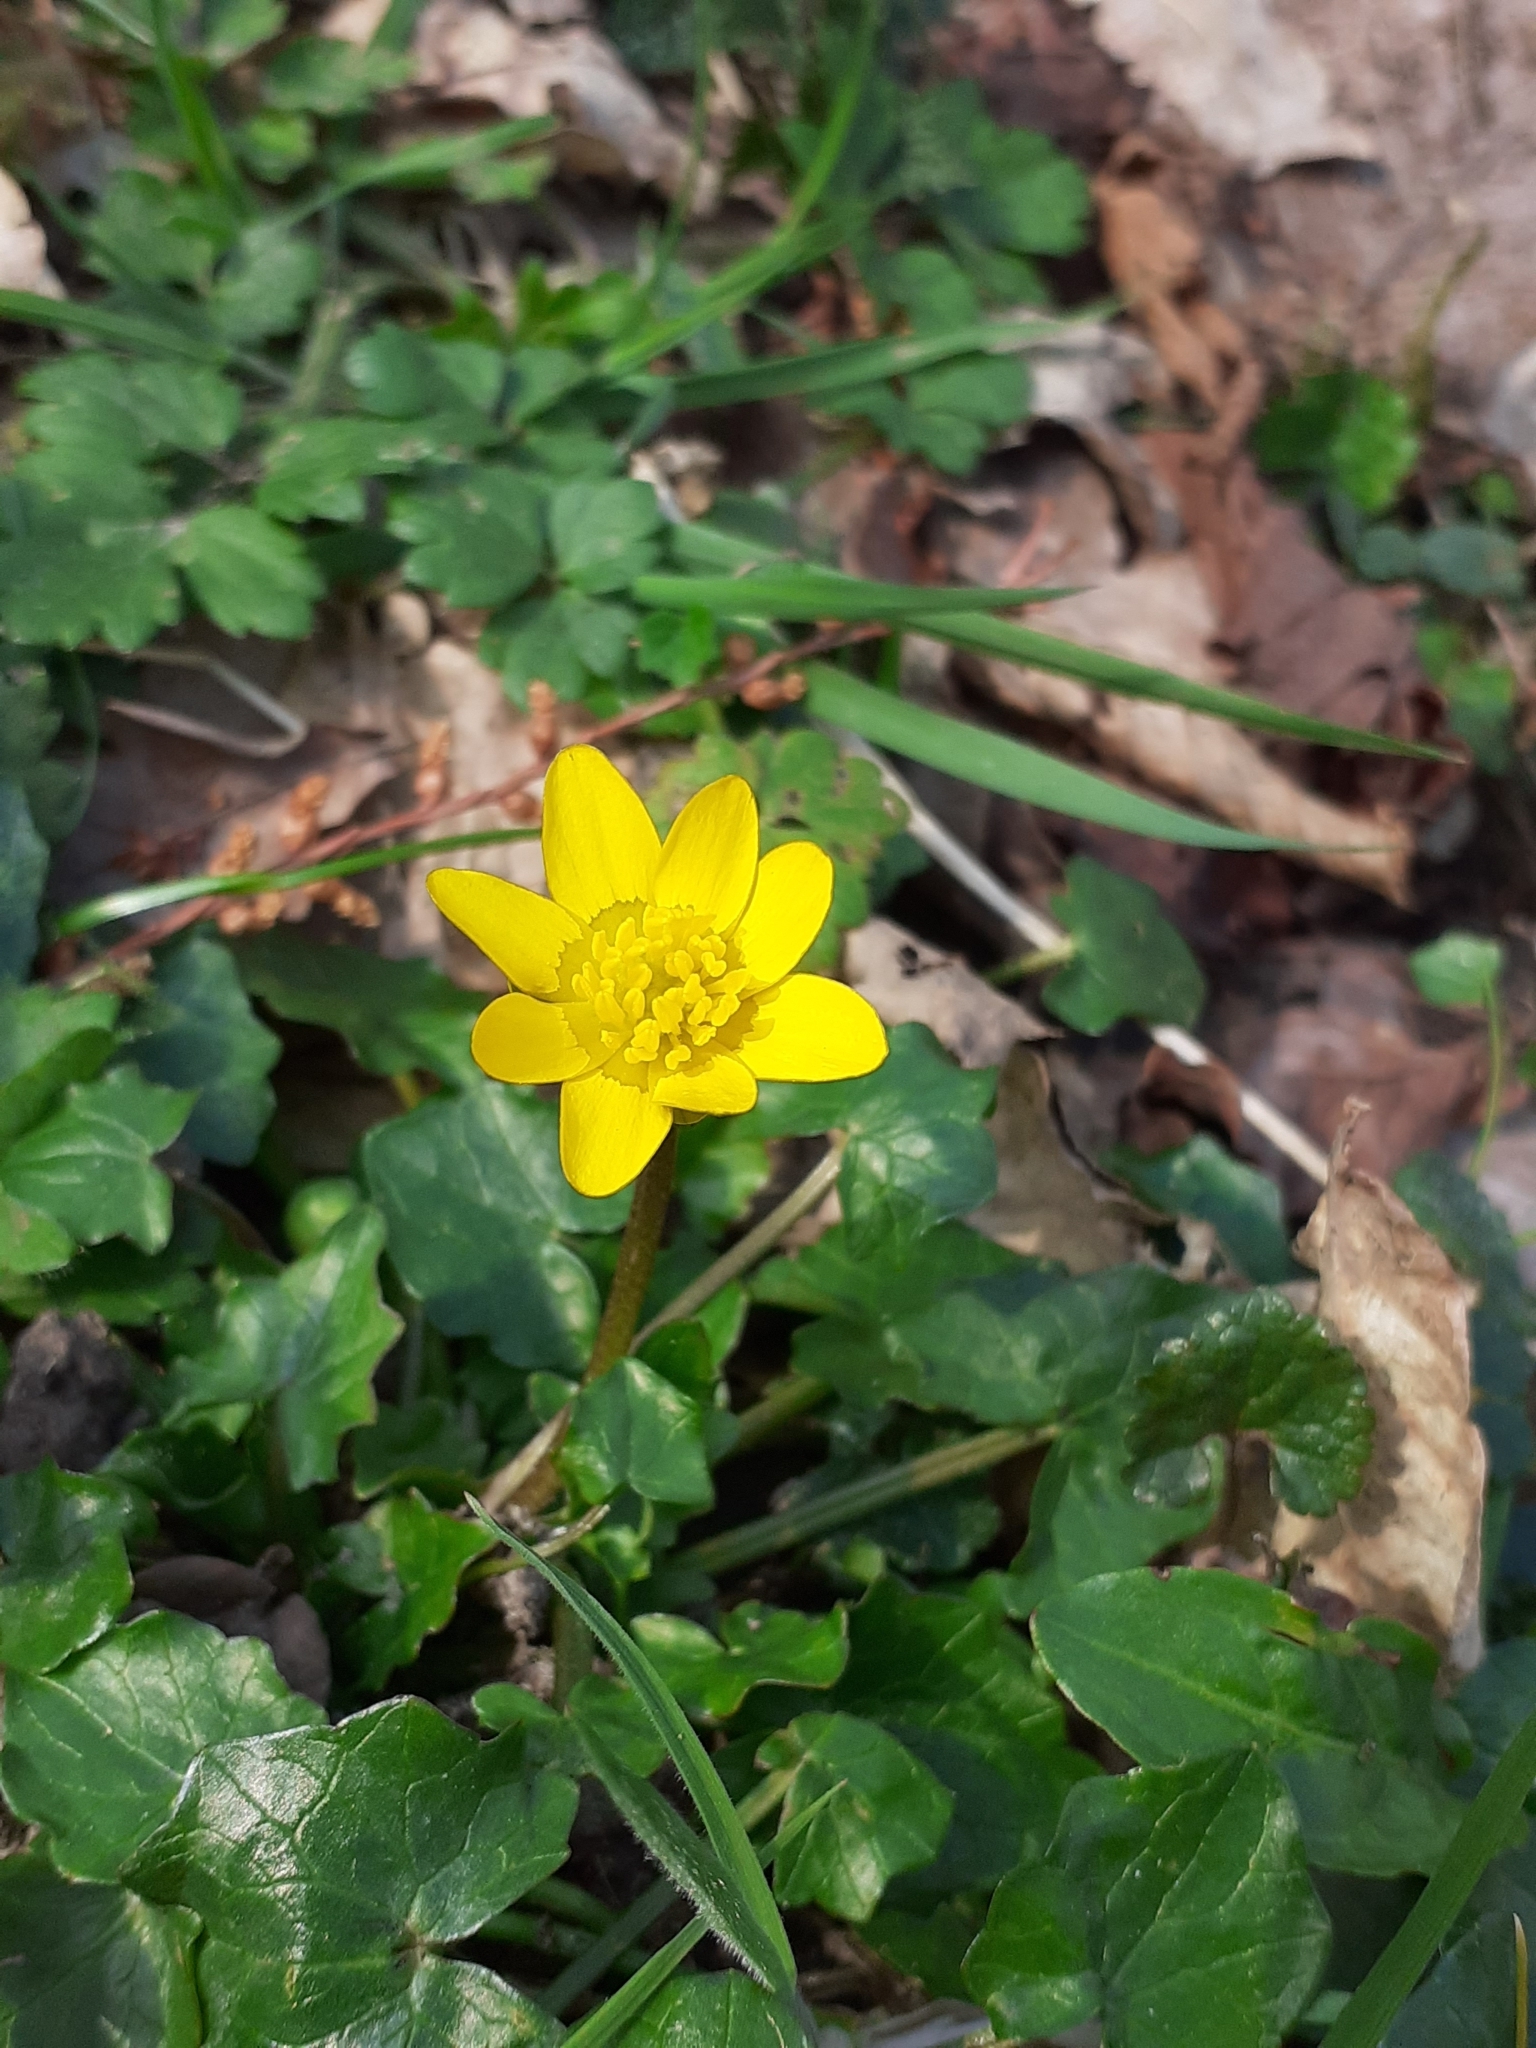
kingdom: Plantae
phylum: Tracheophyta
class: Magnoliopsida
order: Ranunculales
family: Ranunculaceae
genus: Ficaria
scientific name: Ficaria verna
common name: Lesser celandine
